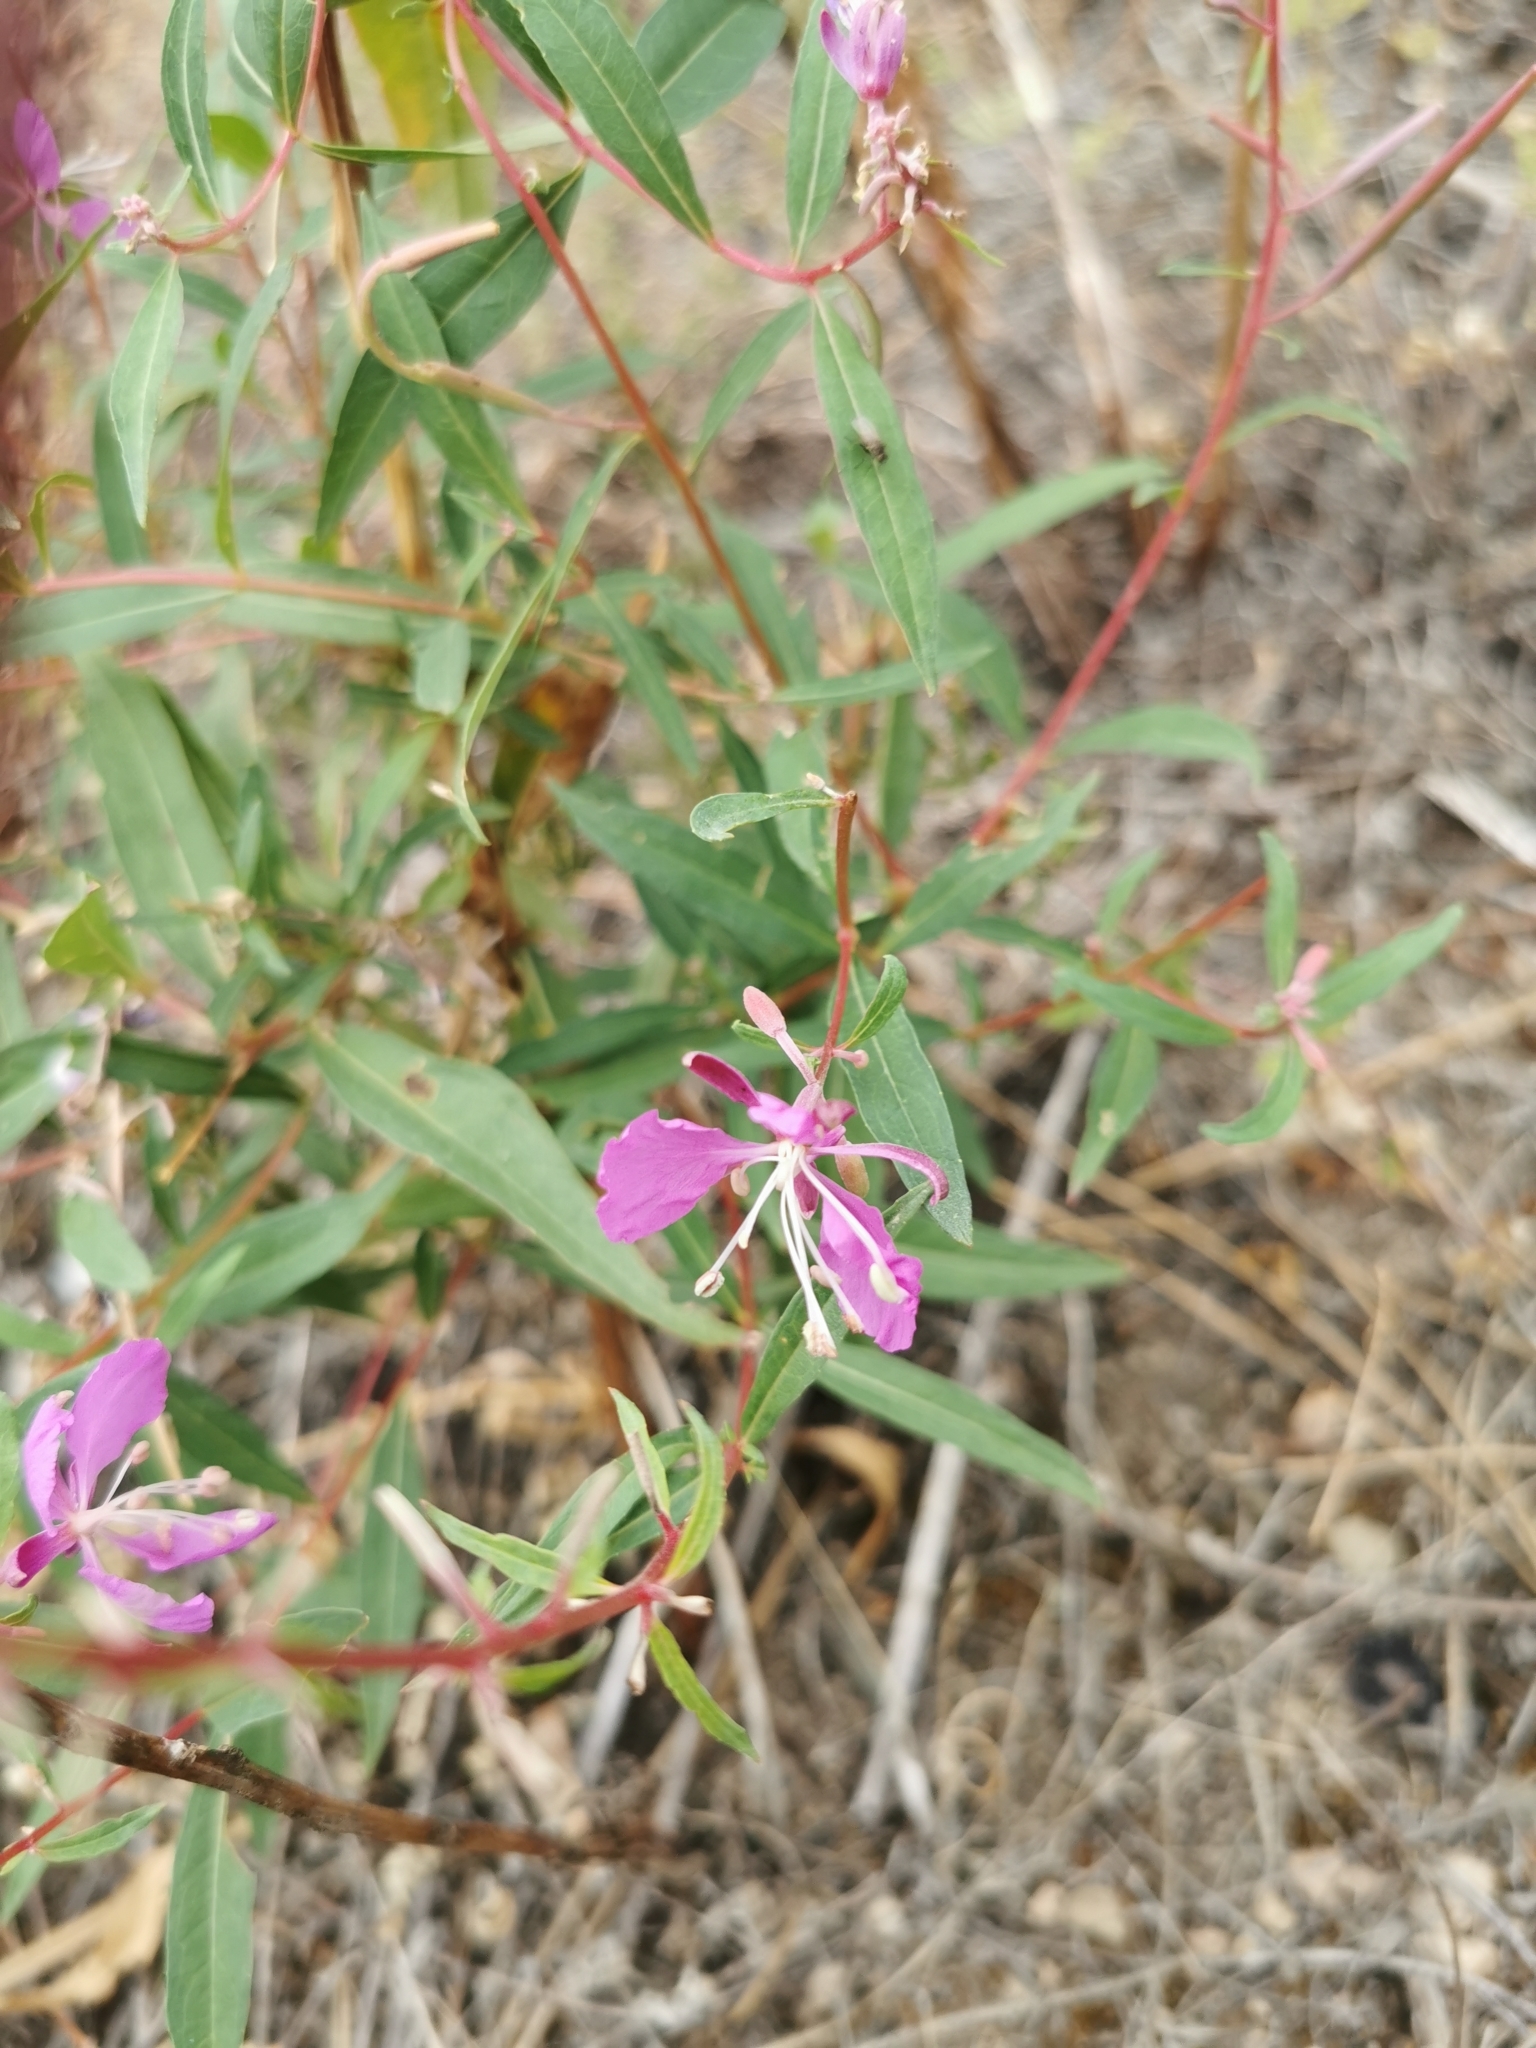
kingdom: Plantae
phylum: Tracheophyta
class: Magnoliopsida
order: Myrtales
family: Onagraceae
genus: Chamaenerion
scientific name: Chamaenerion angustifolium
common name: Fireweed
